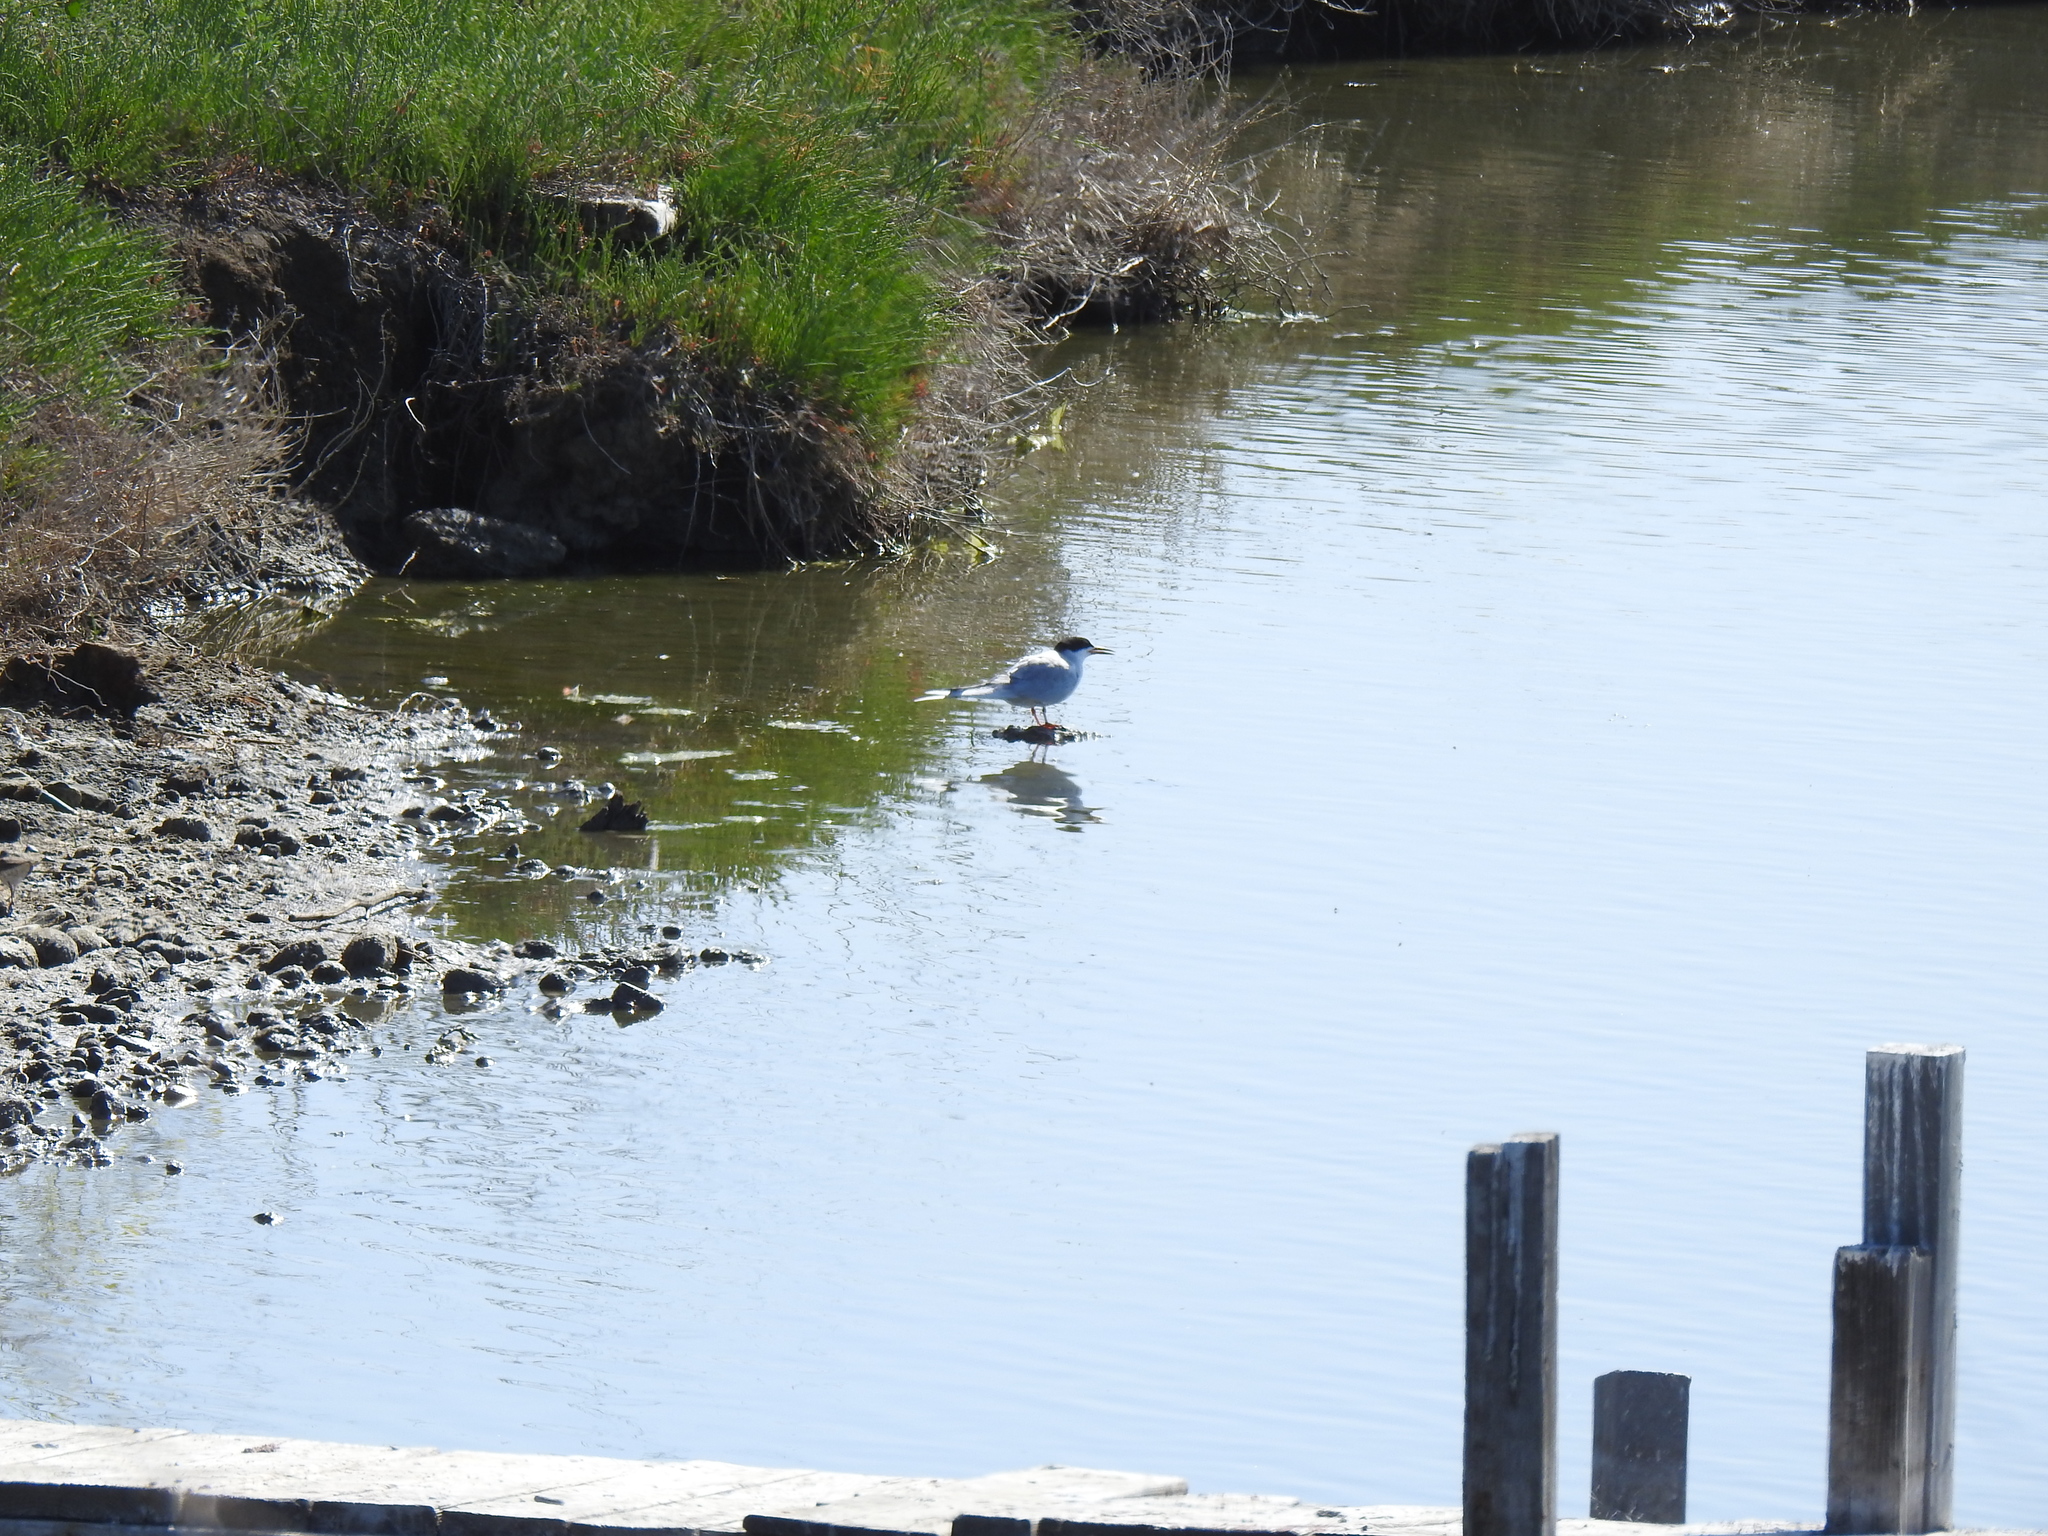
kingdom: Animalia
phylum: Chordata
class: Aves
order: Charadriiformes
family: Laridae
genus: Sterna
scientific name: Sterna forsteri
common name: Forster's tern
